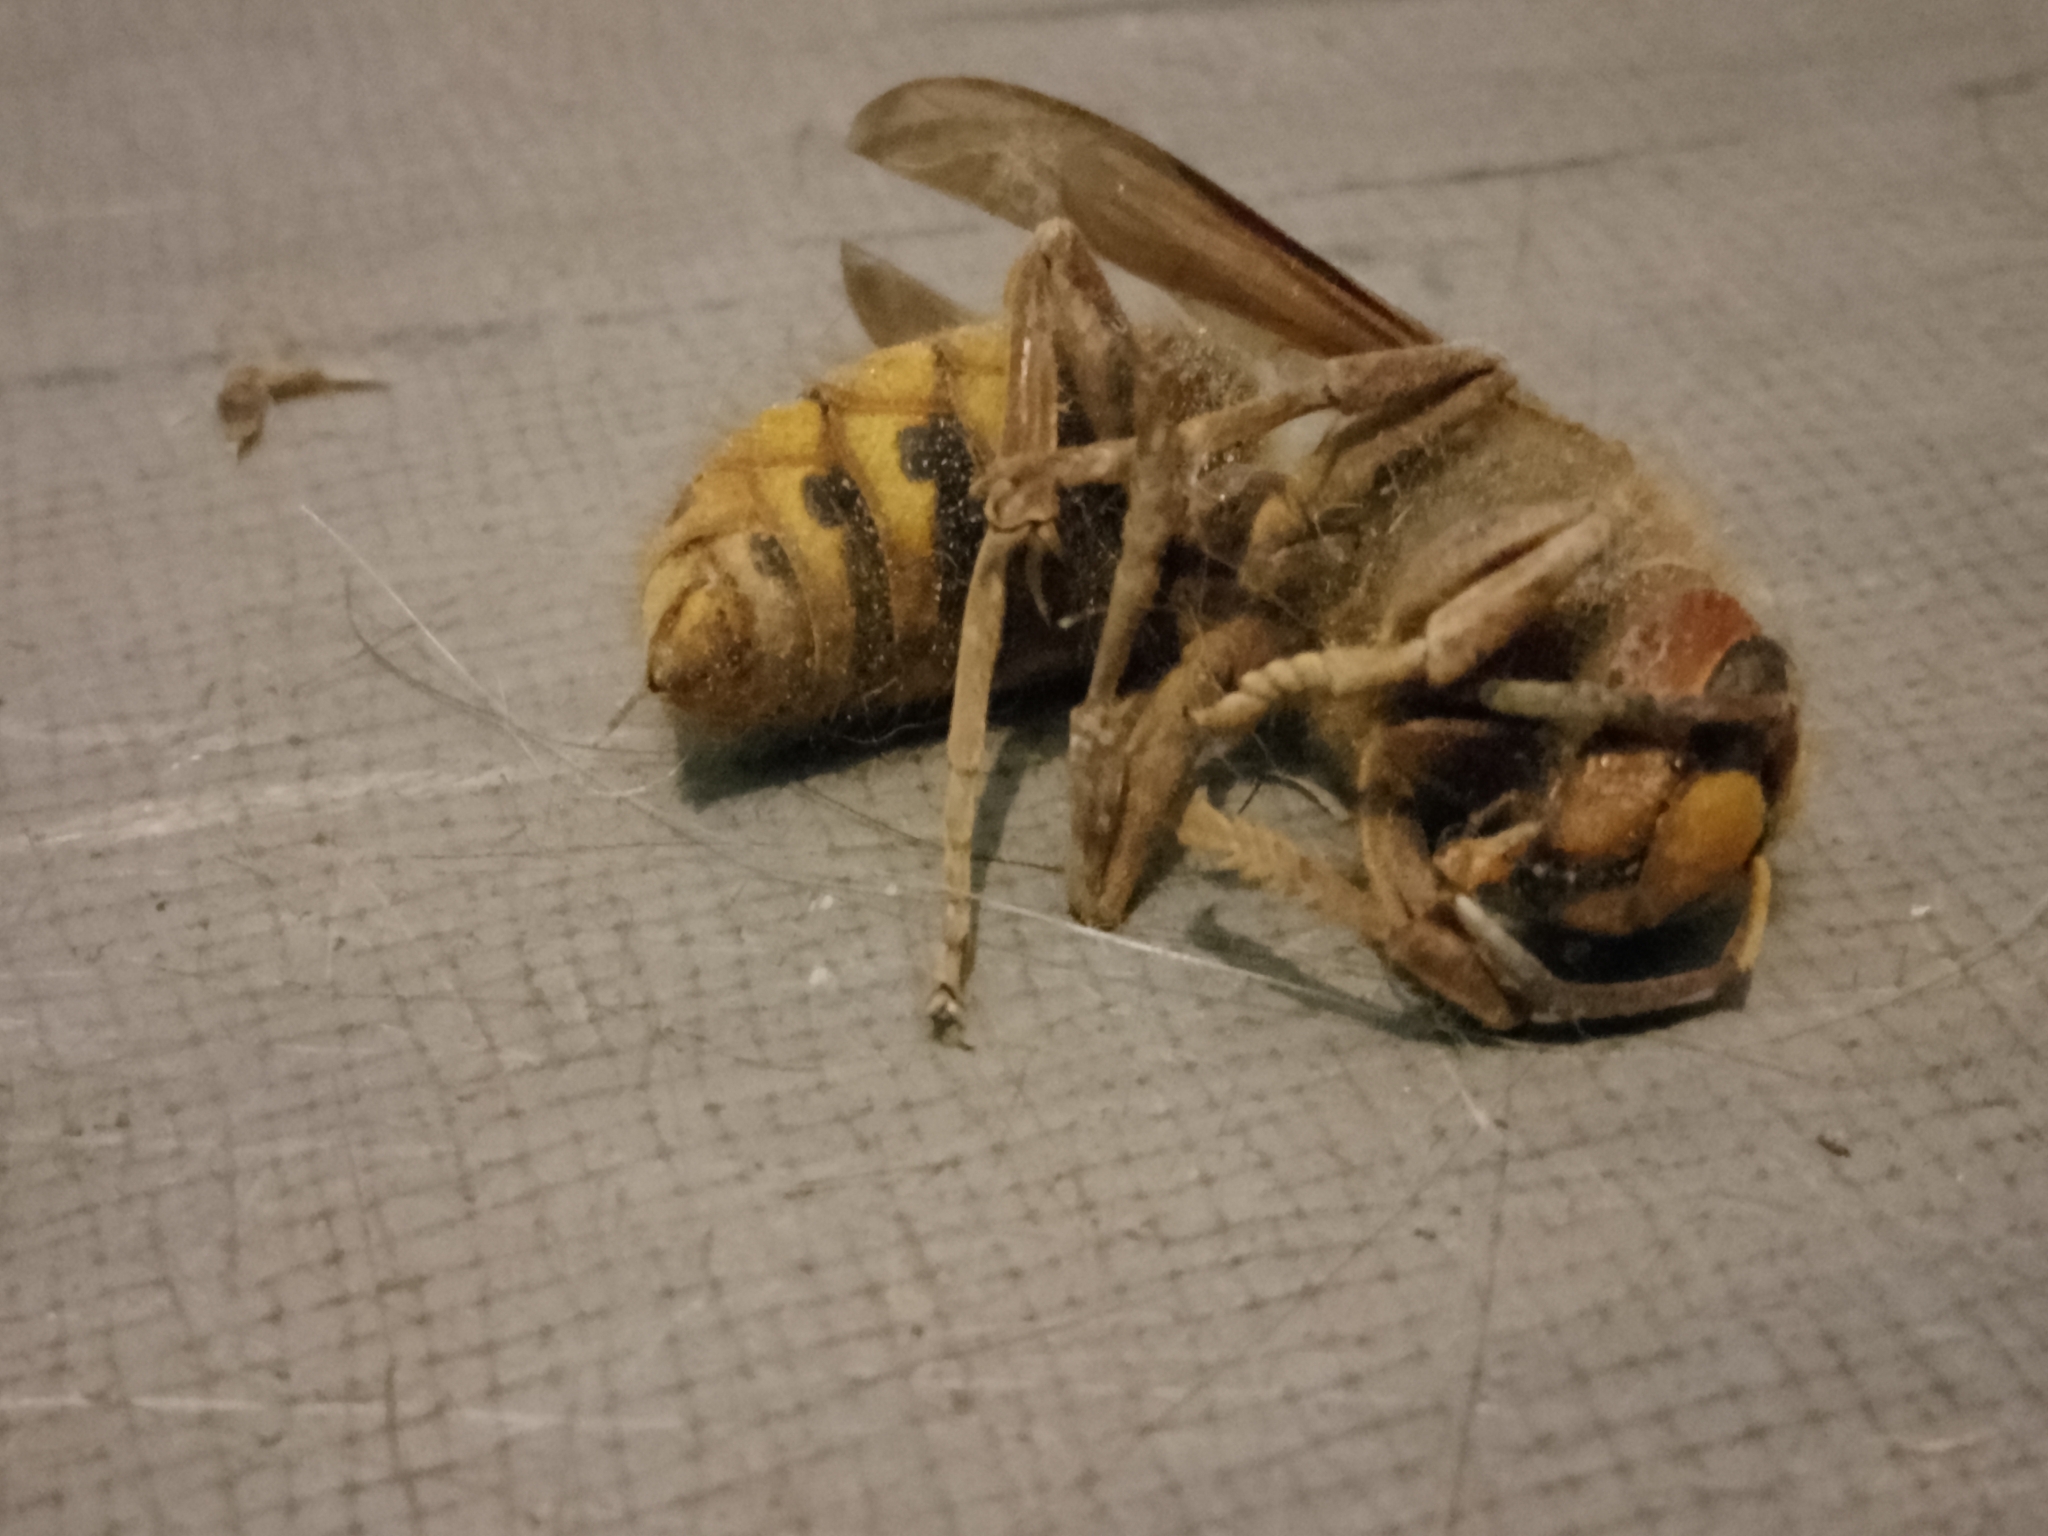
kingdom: Animalia
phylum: Arthropoda
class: Insecta
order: Hymenoptera
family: Vespidae
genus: Vespa
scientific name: Vespa crabro
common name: Hornet
